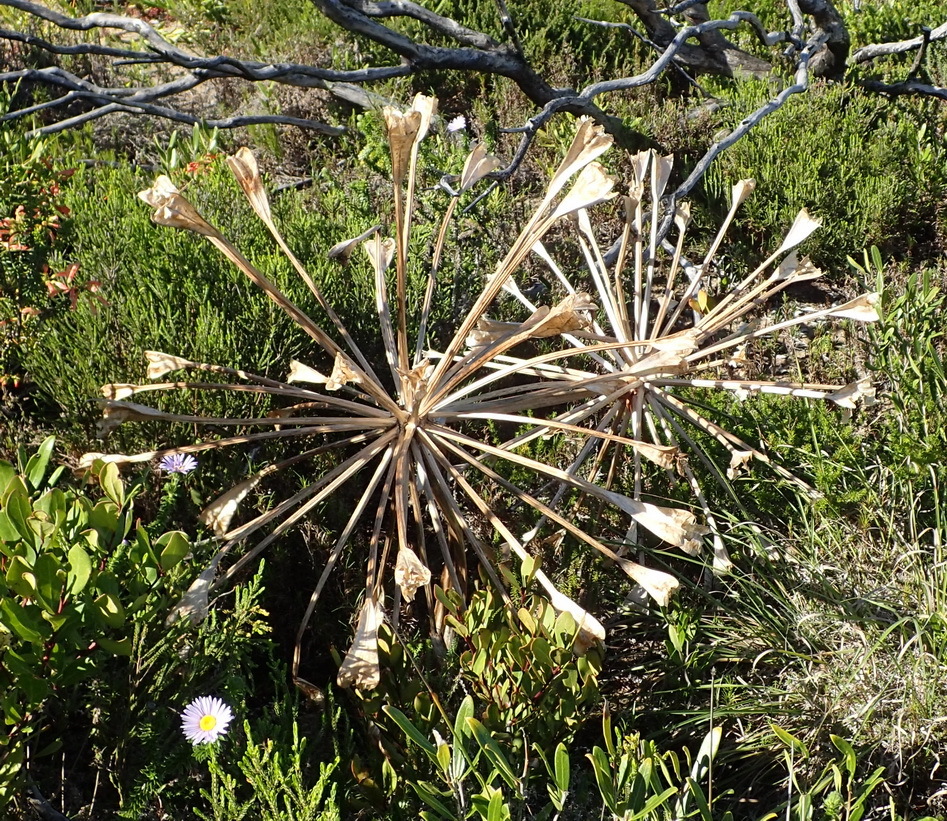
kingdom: Plantae
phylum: Tracheophyta
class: Liliopsida
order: Asparagales
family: Amaryllidaceae
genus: Brunsvigia
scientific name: Brunsvigia orientalis
